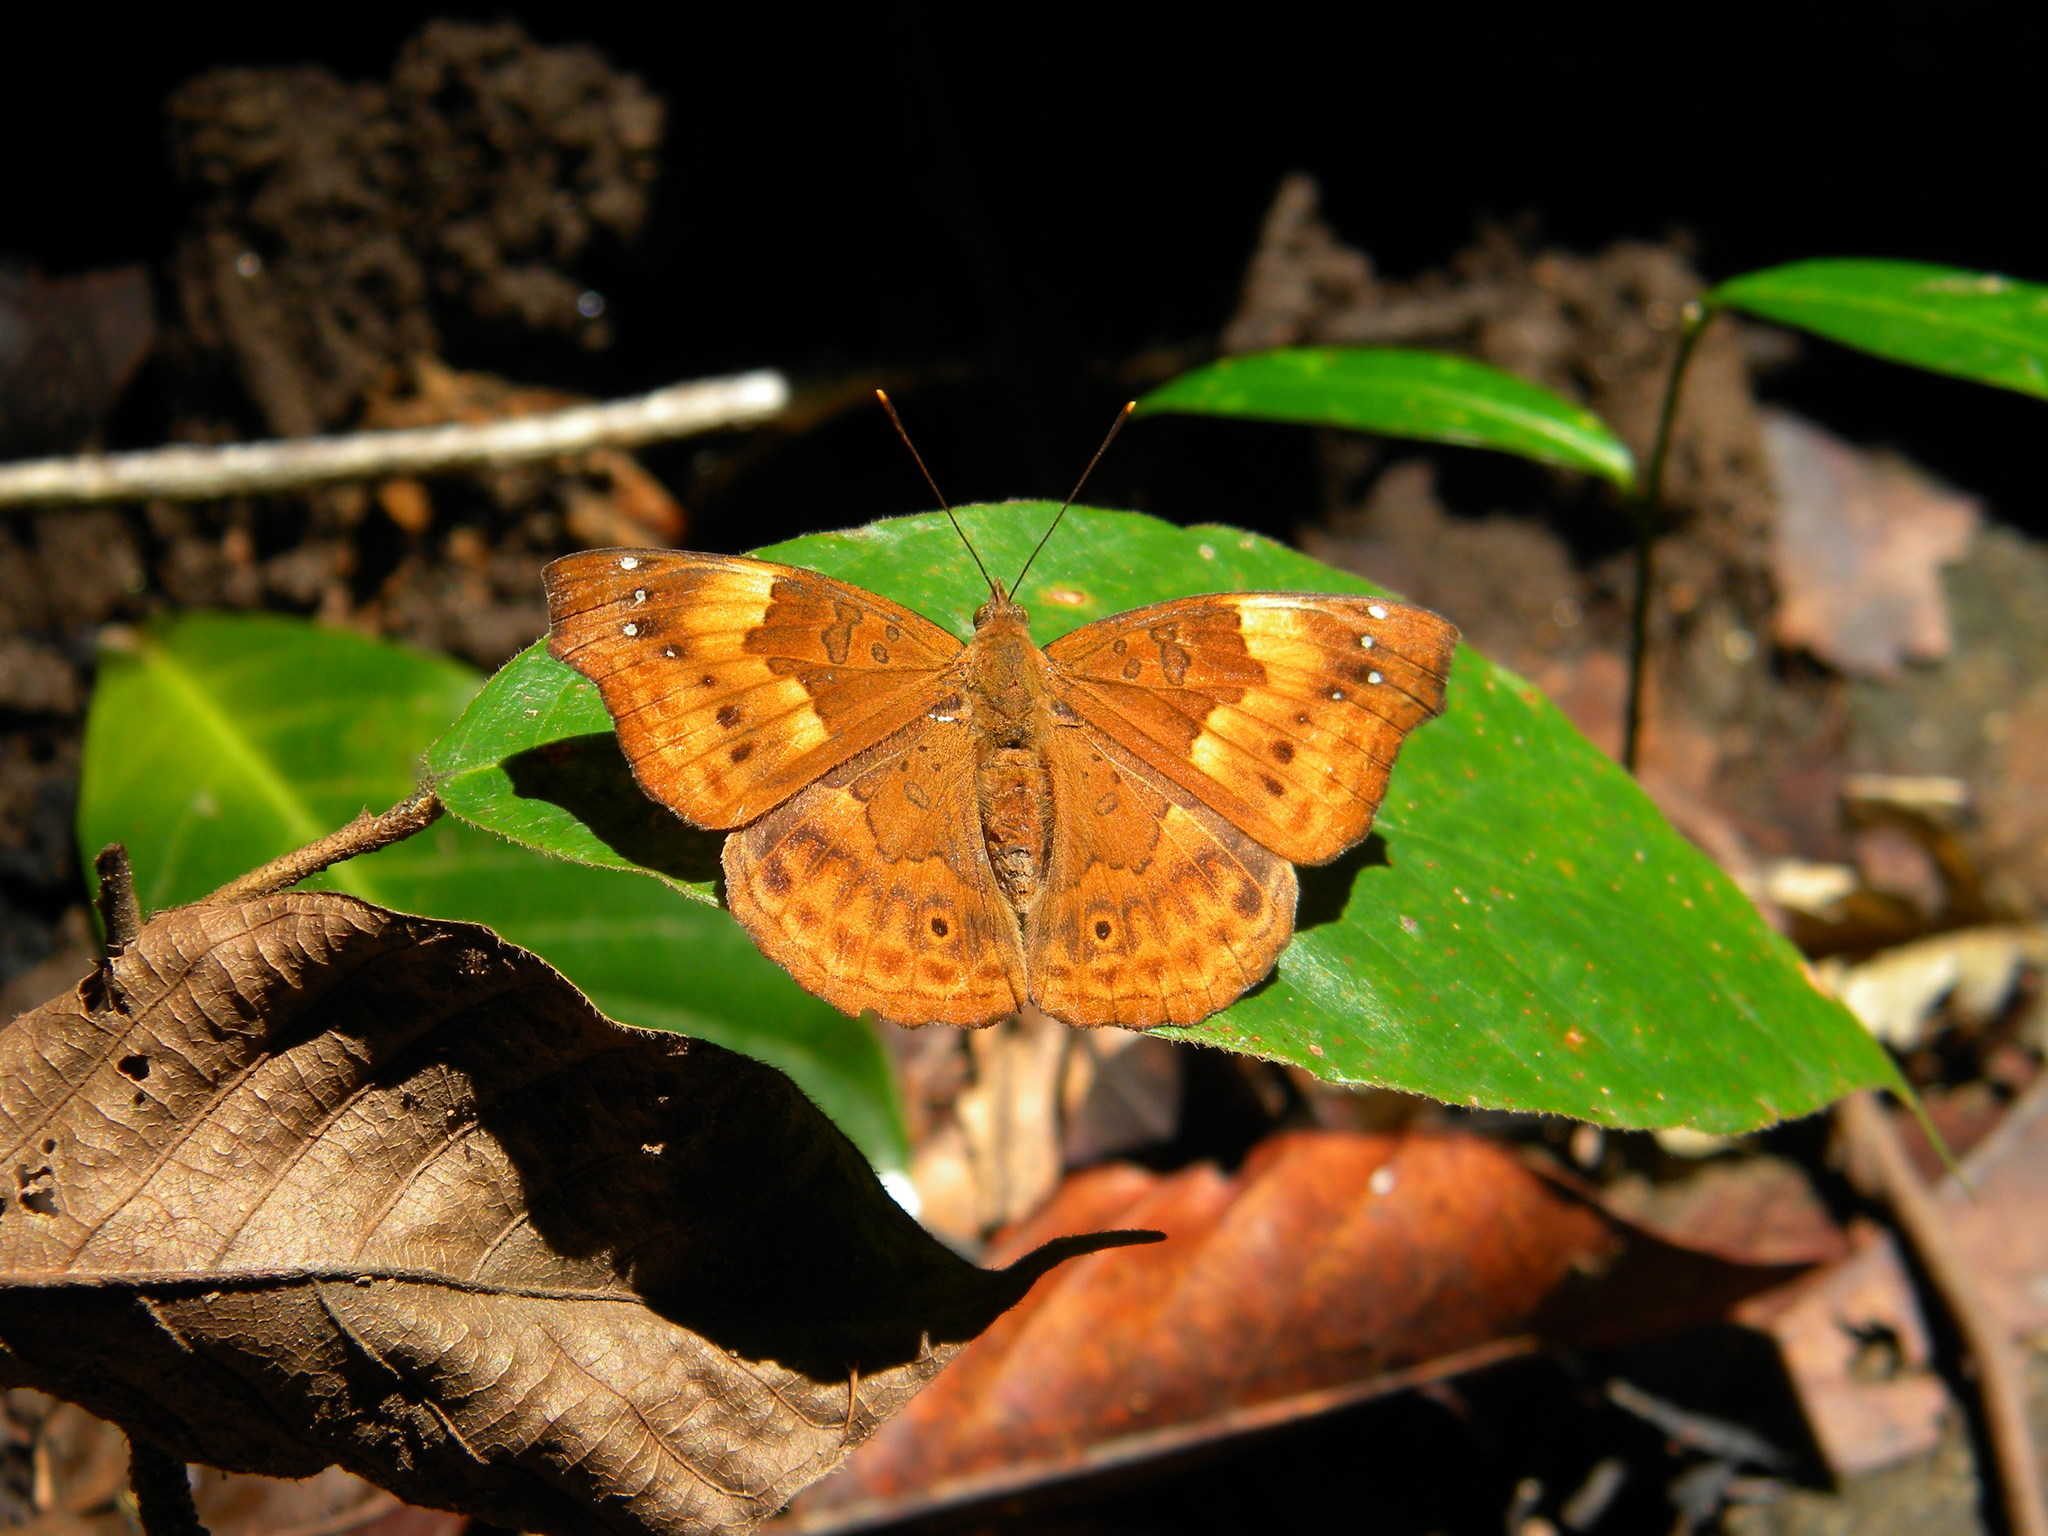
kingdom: Animalia
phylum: Arthropoda
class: Insecta
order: Lepidoptera
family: Nymphalidae
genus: Apatura
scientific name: Apatura Rohana spec
